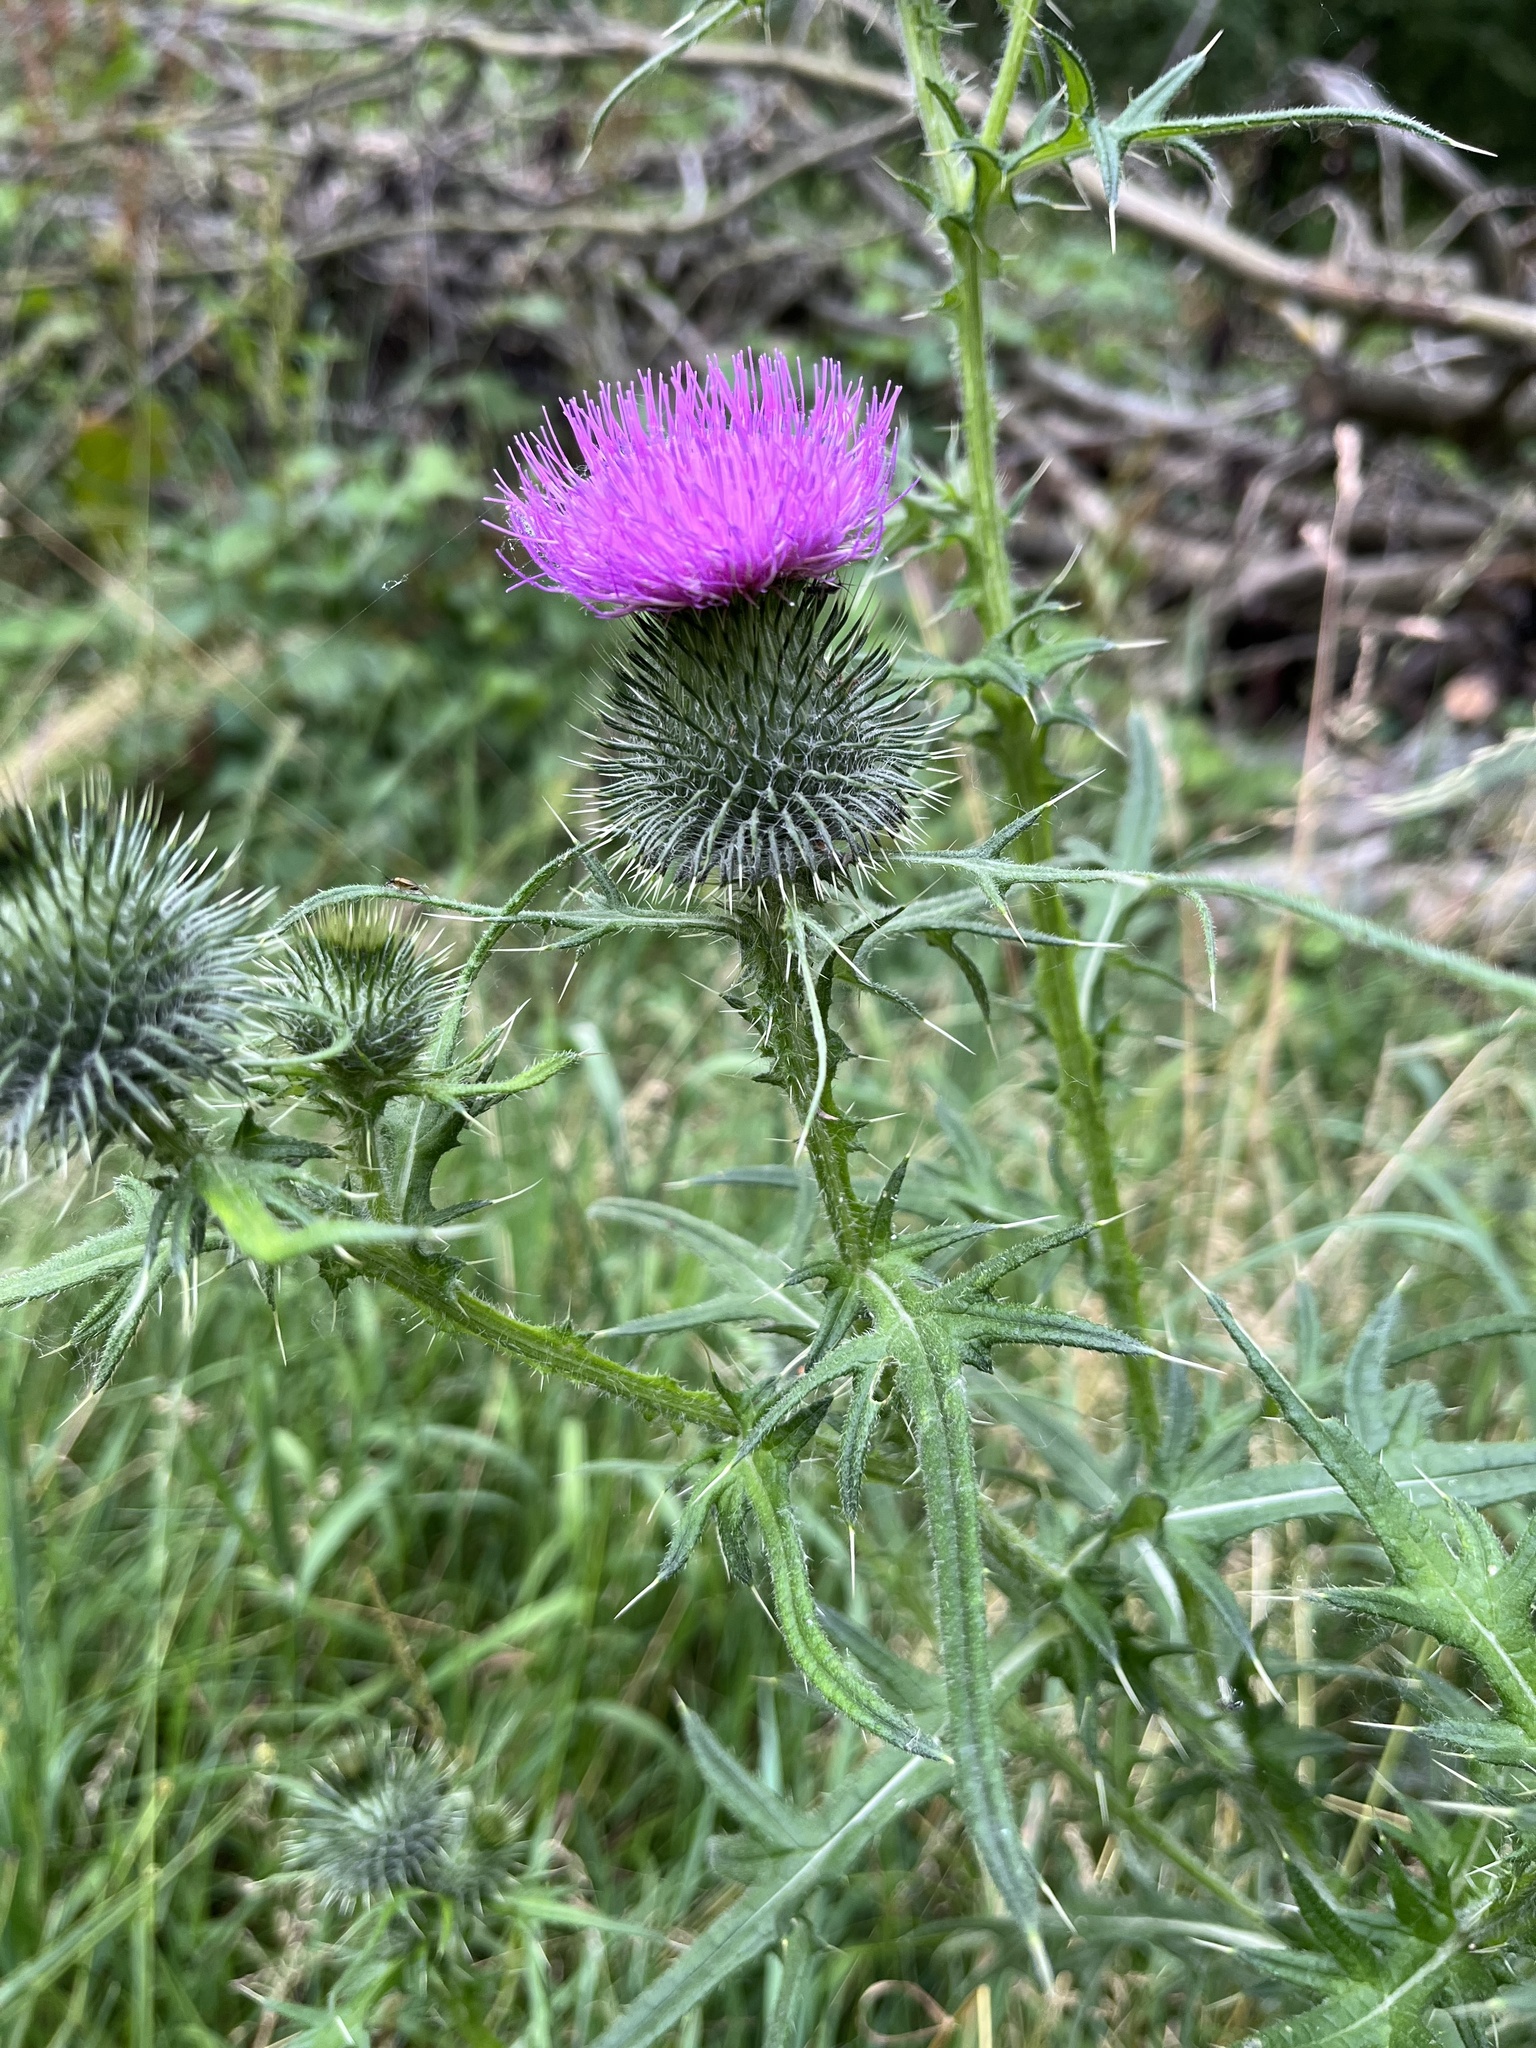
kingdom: Plantae
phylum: Tracheophyta
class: Magnoliopsida
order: Asterales
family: Asteraceae
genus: Cirsium
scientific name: Cirsium vulgare
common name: Bull thistle
